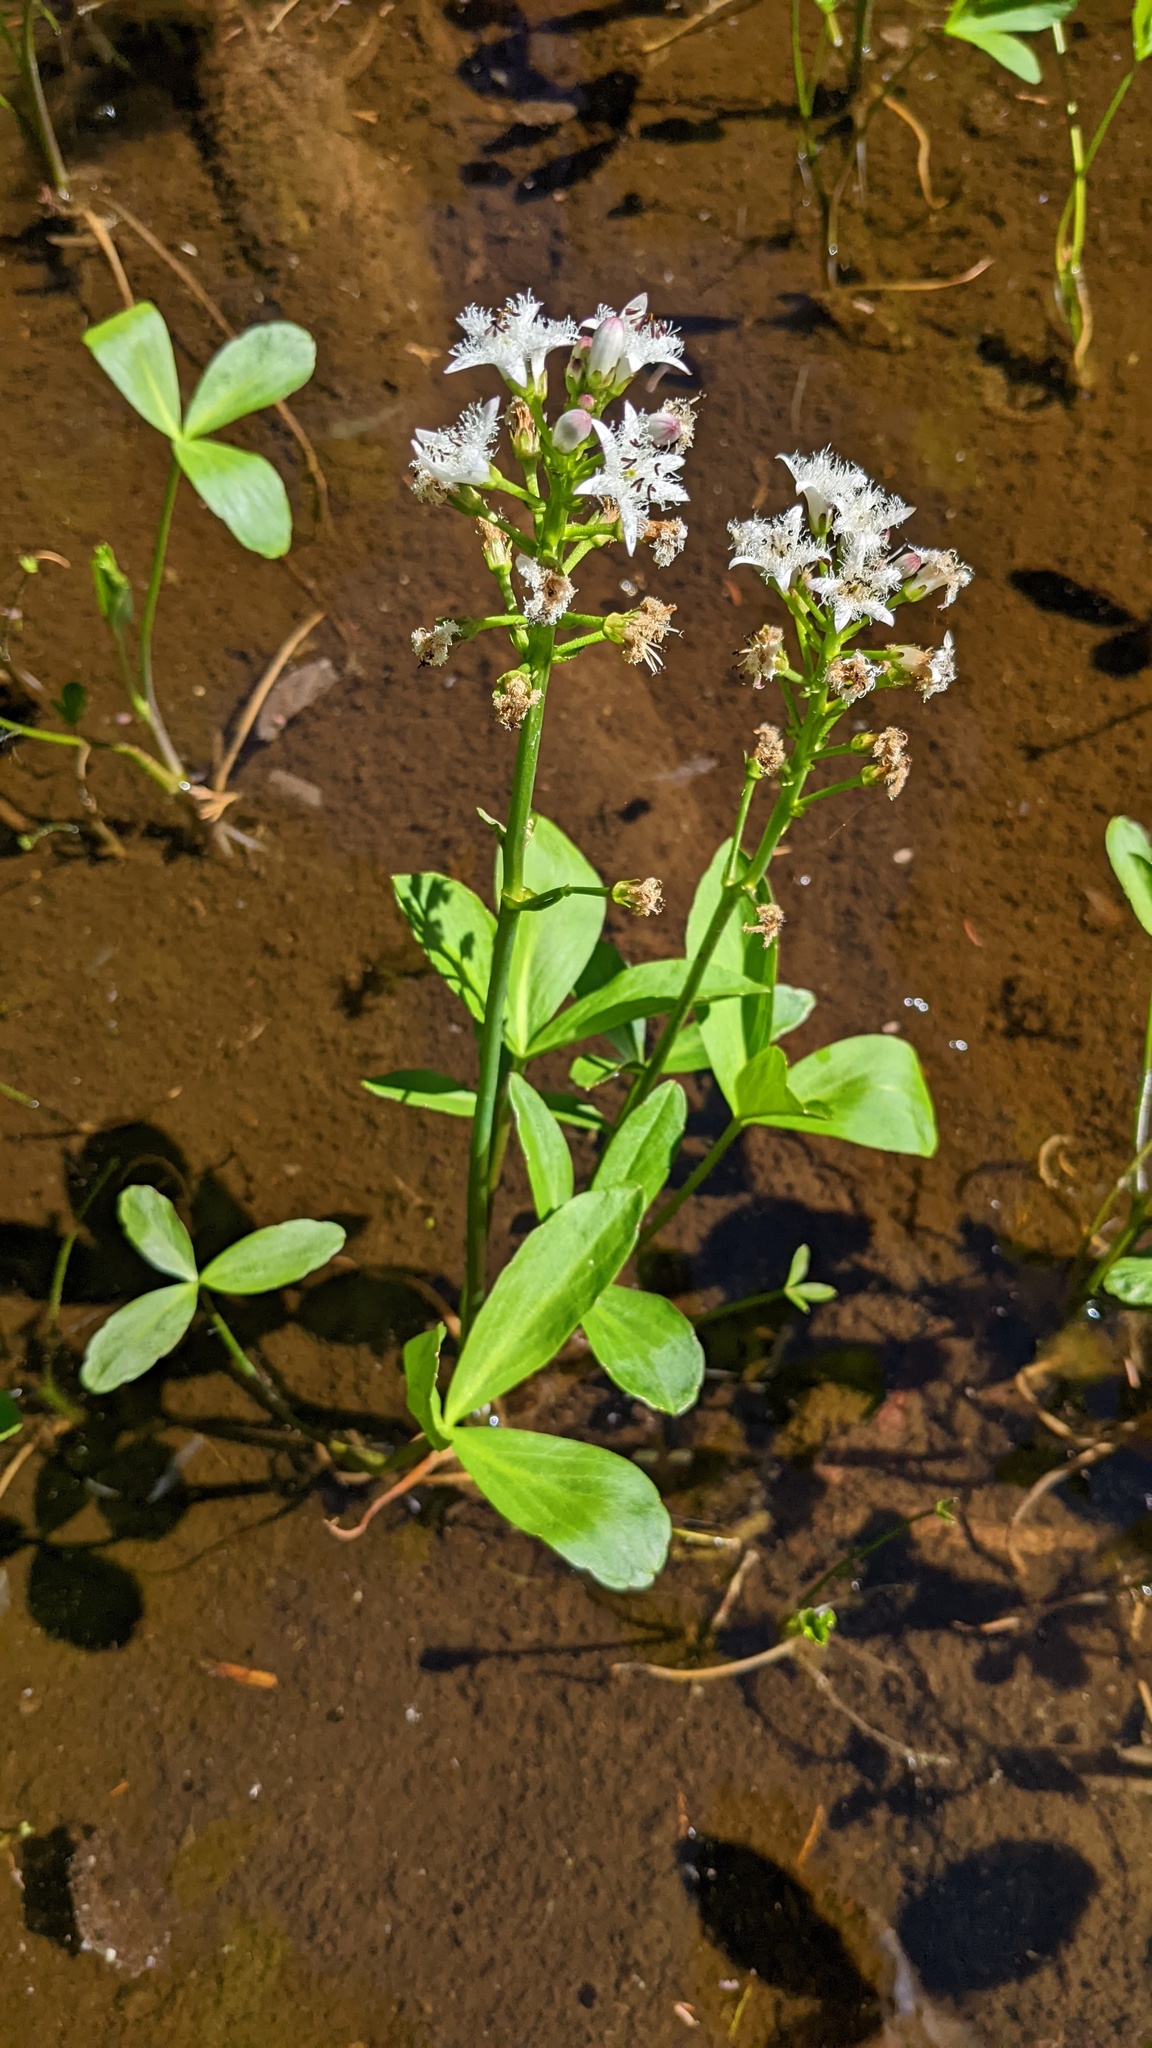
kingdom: Plantae
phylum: Tracheophyta
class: Magnoliopsida
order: Asterales
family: Menyanthaceae
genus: Menyanthes
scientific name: Menyanthes trifoliata
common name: Bogbean
